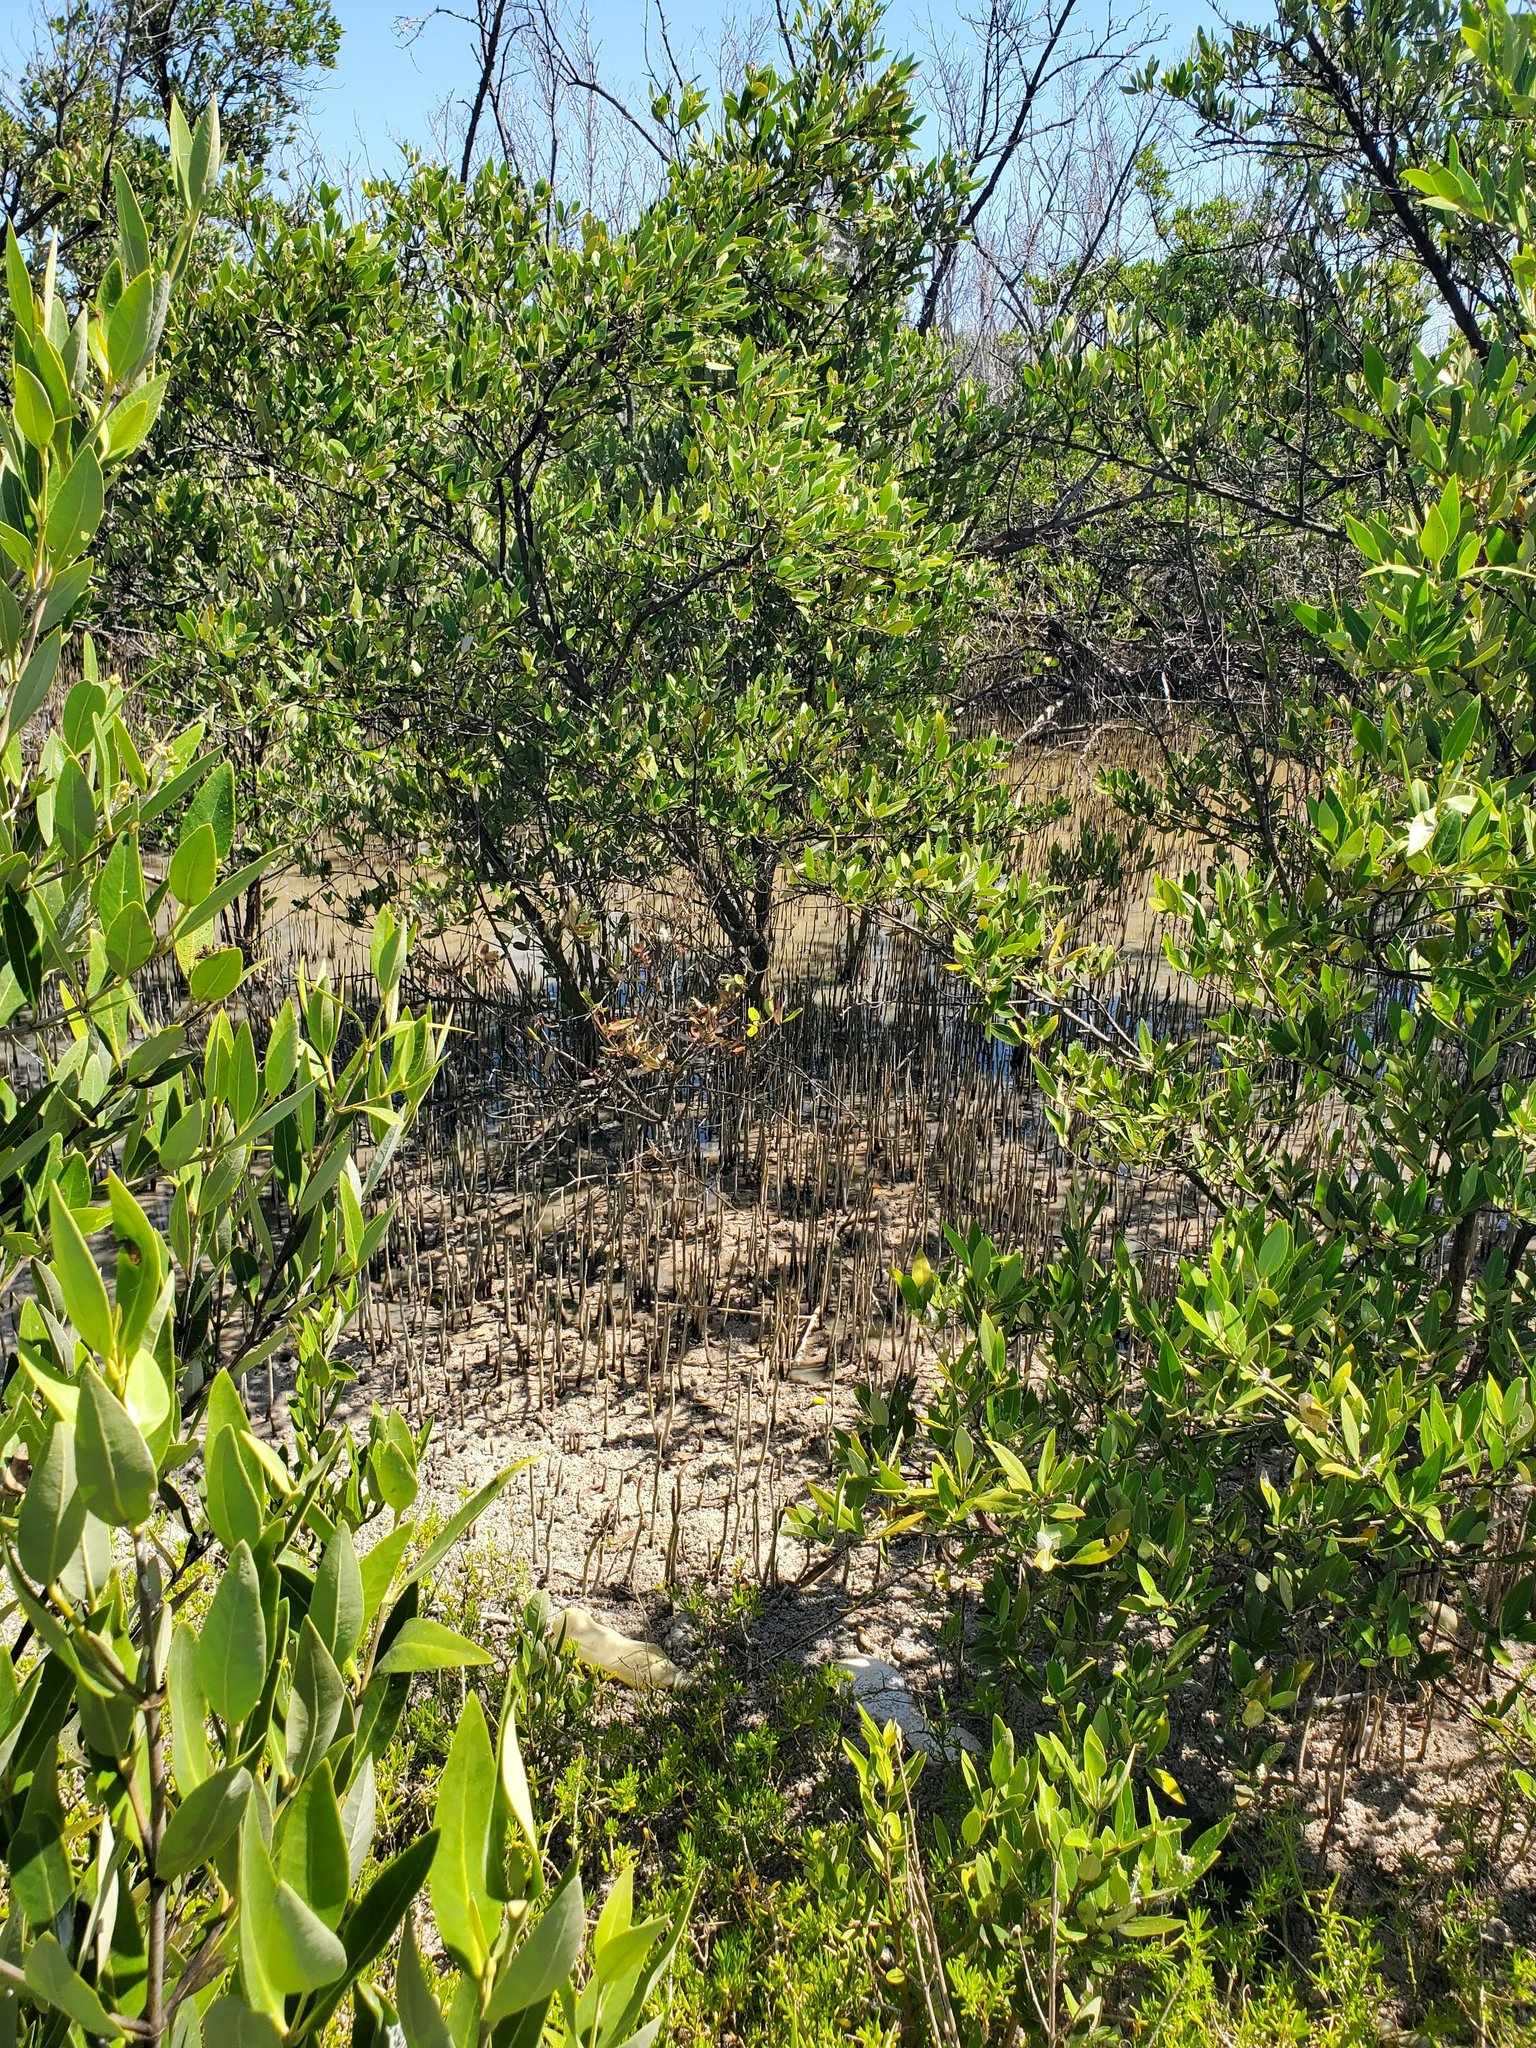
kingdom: Plantae
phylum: Tracheophyta
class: Magnoliopsida
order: Lamiales
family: Acanthaceae
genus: Avicennia
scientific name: Avicennia germinans
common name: Black mangrove
